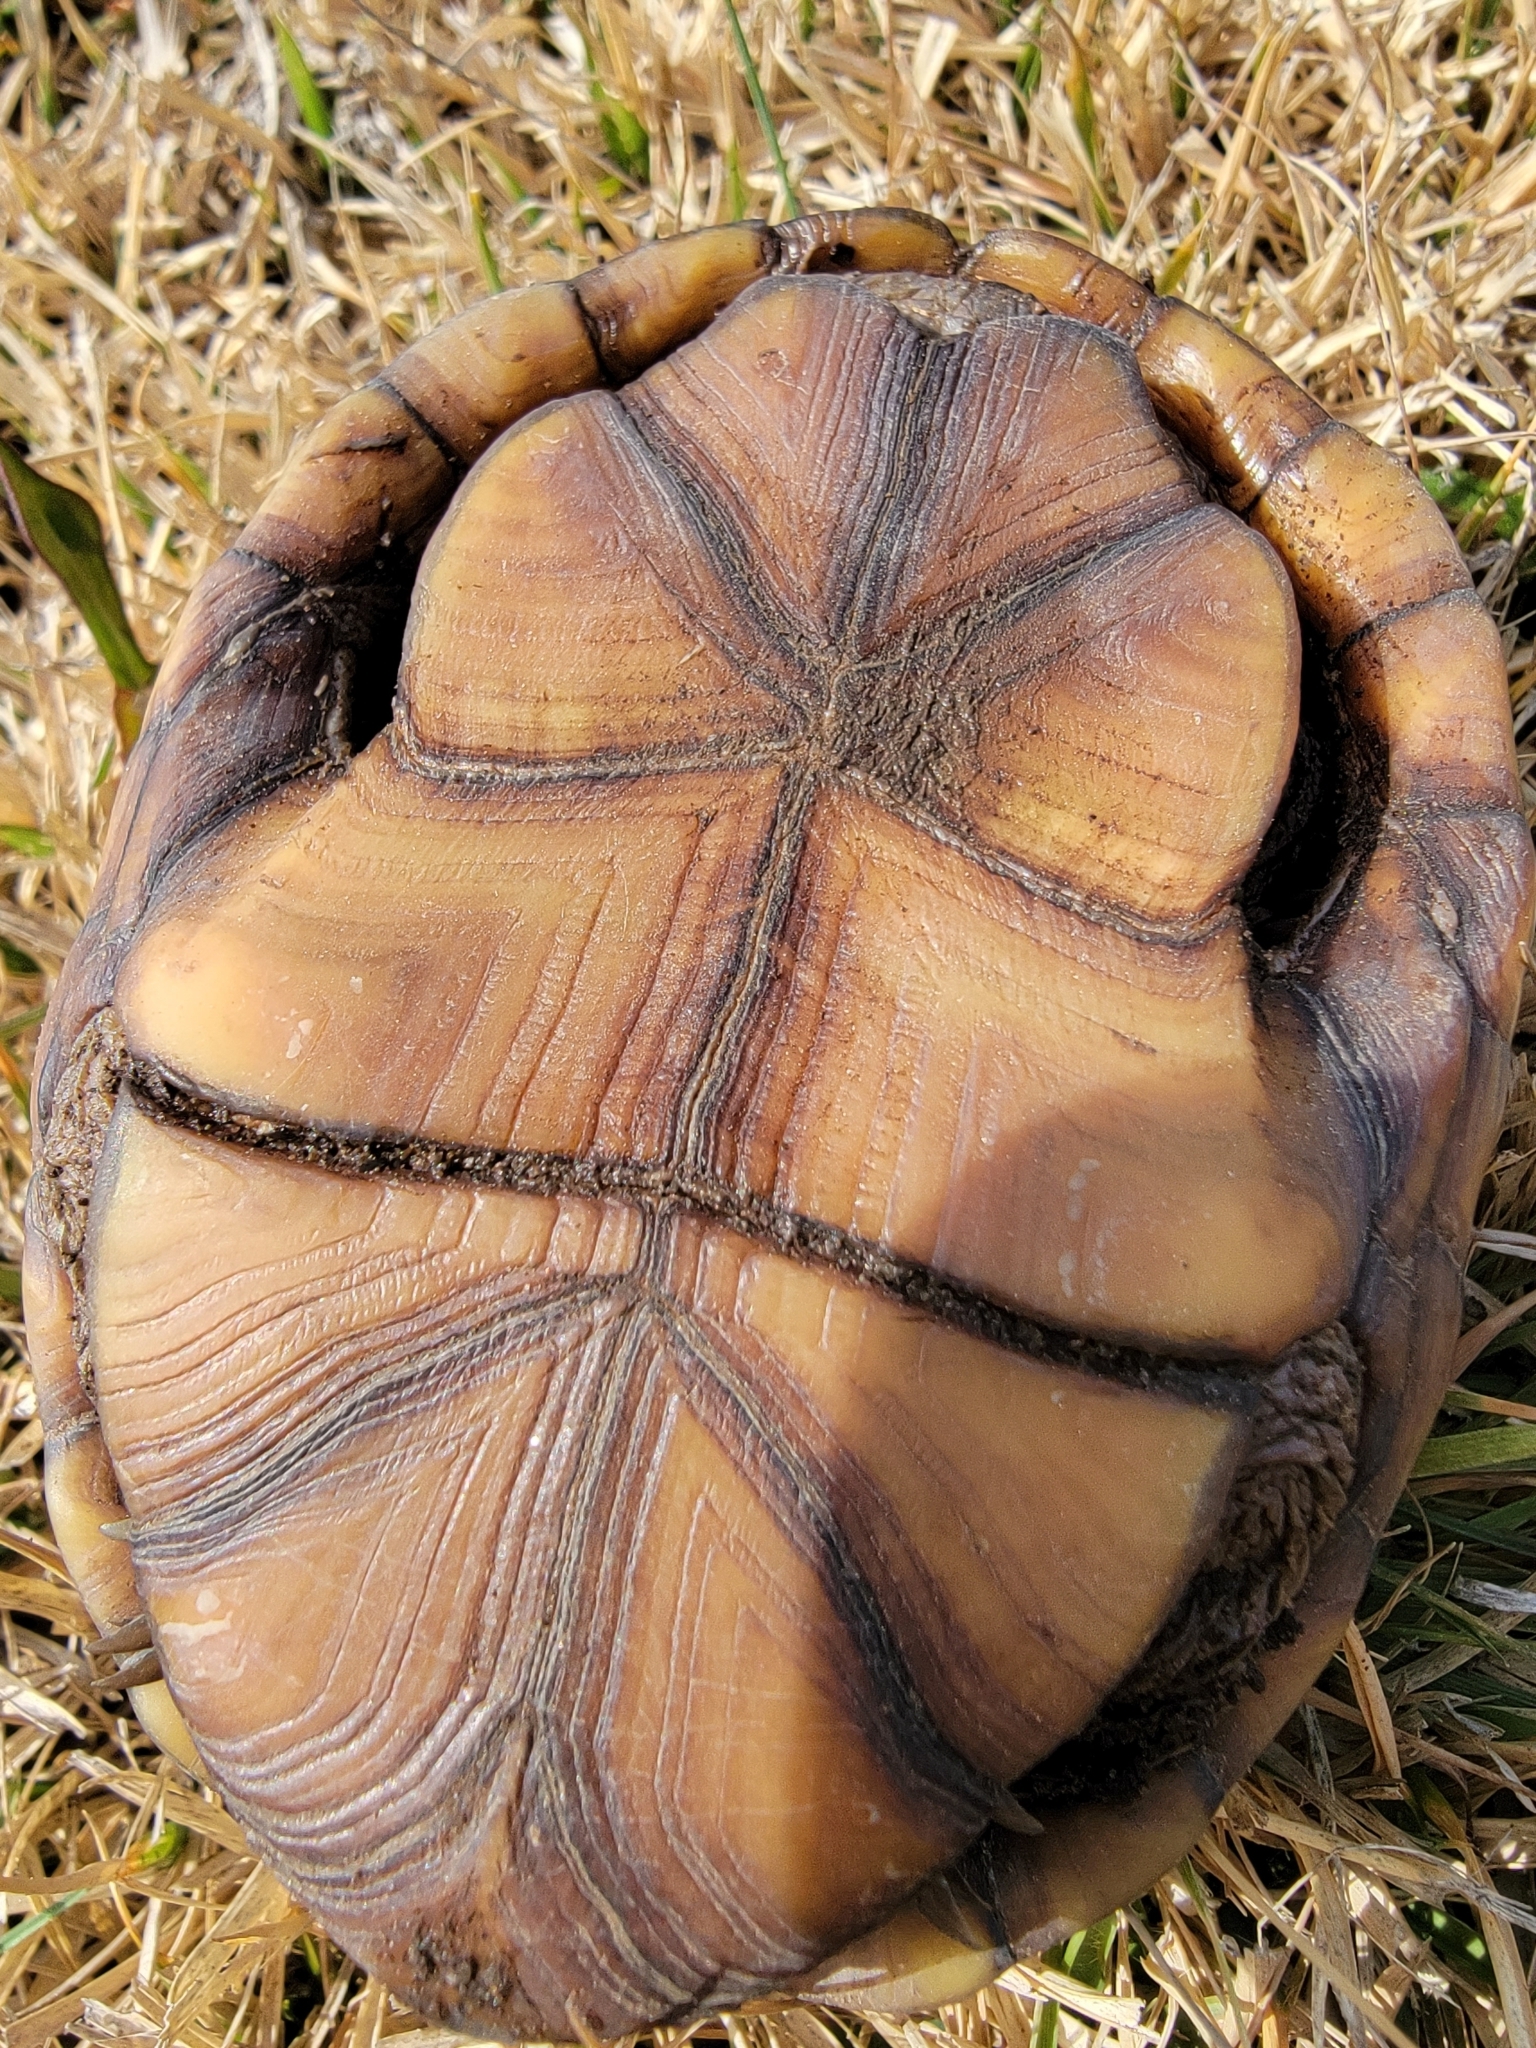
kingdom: Animalia
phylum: Chordata
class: Testudines
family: Kinosternidae
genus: Kinosternon
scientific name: Kinosternon subrubrum
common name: Eastern mud turtle
